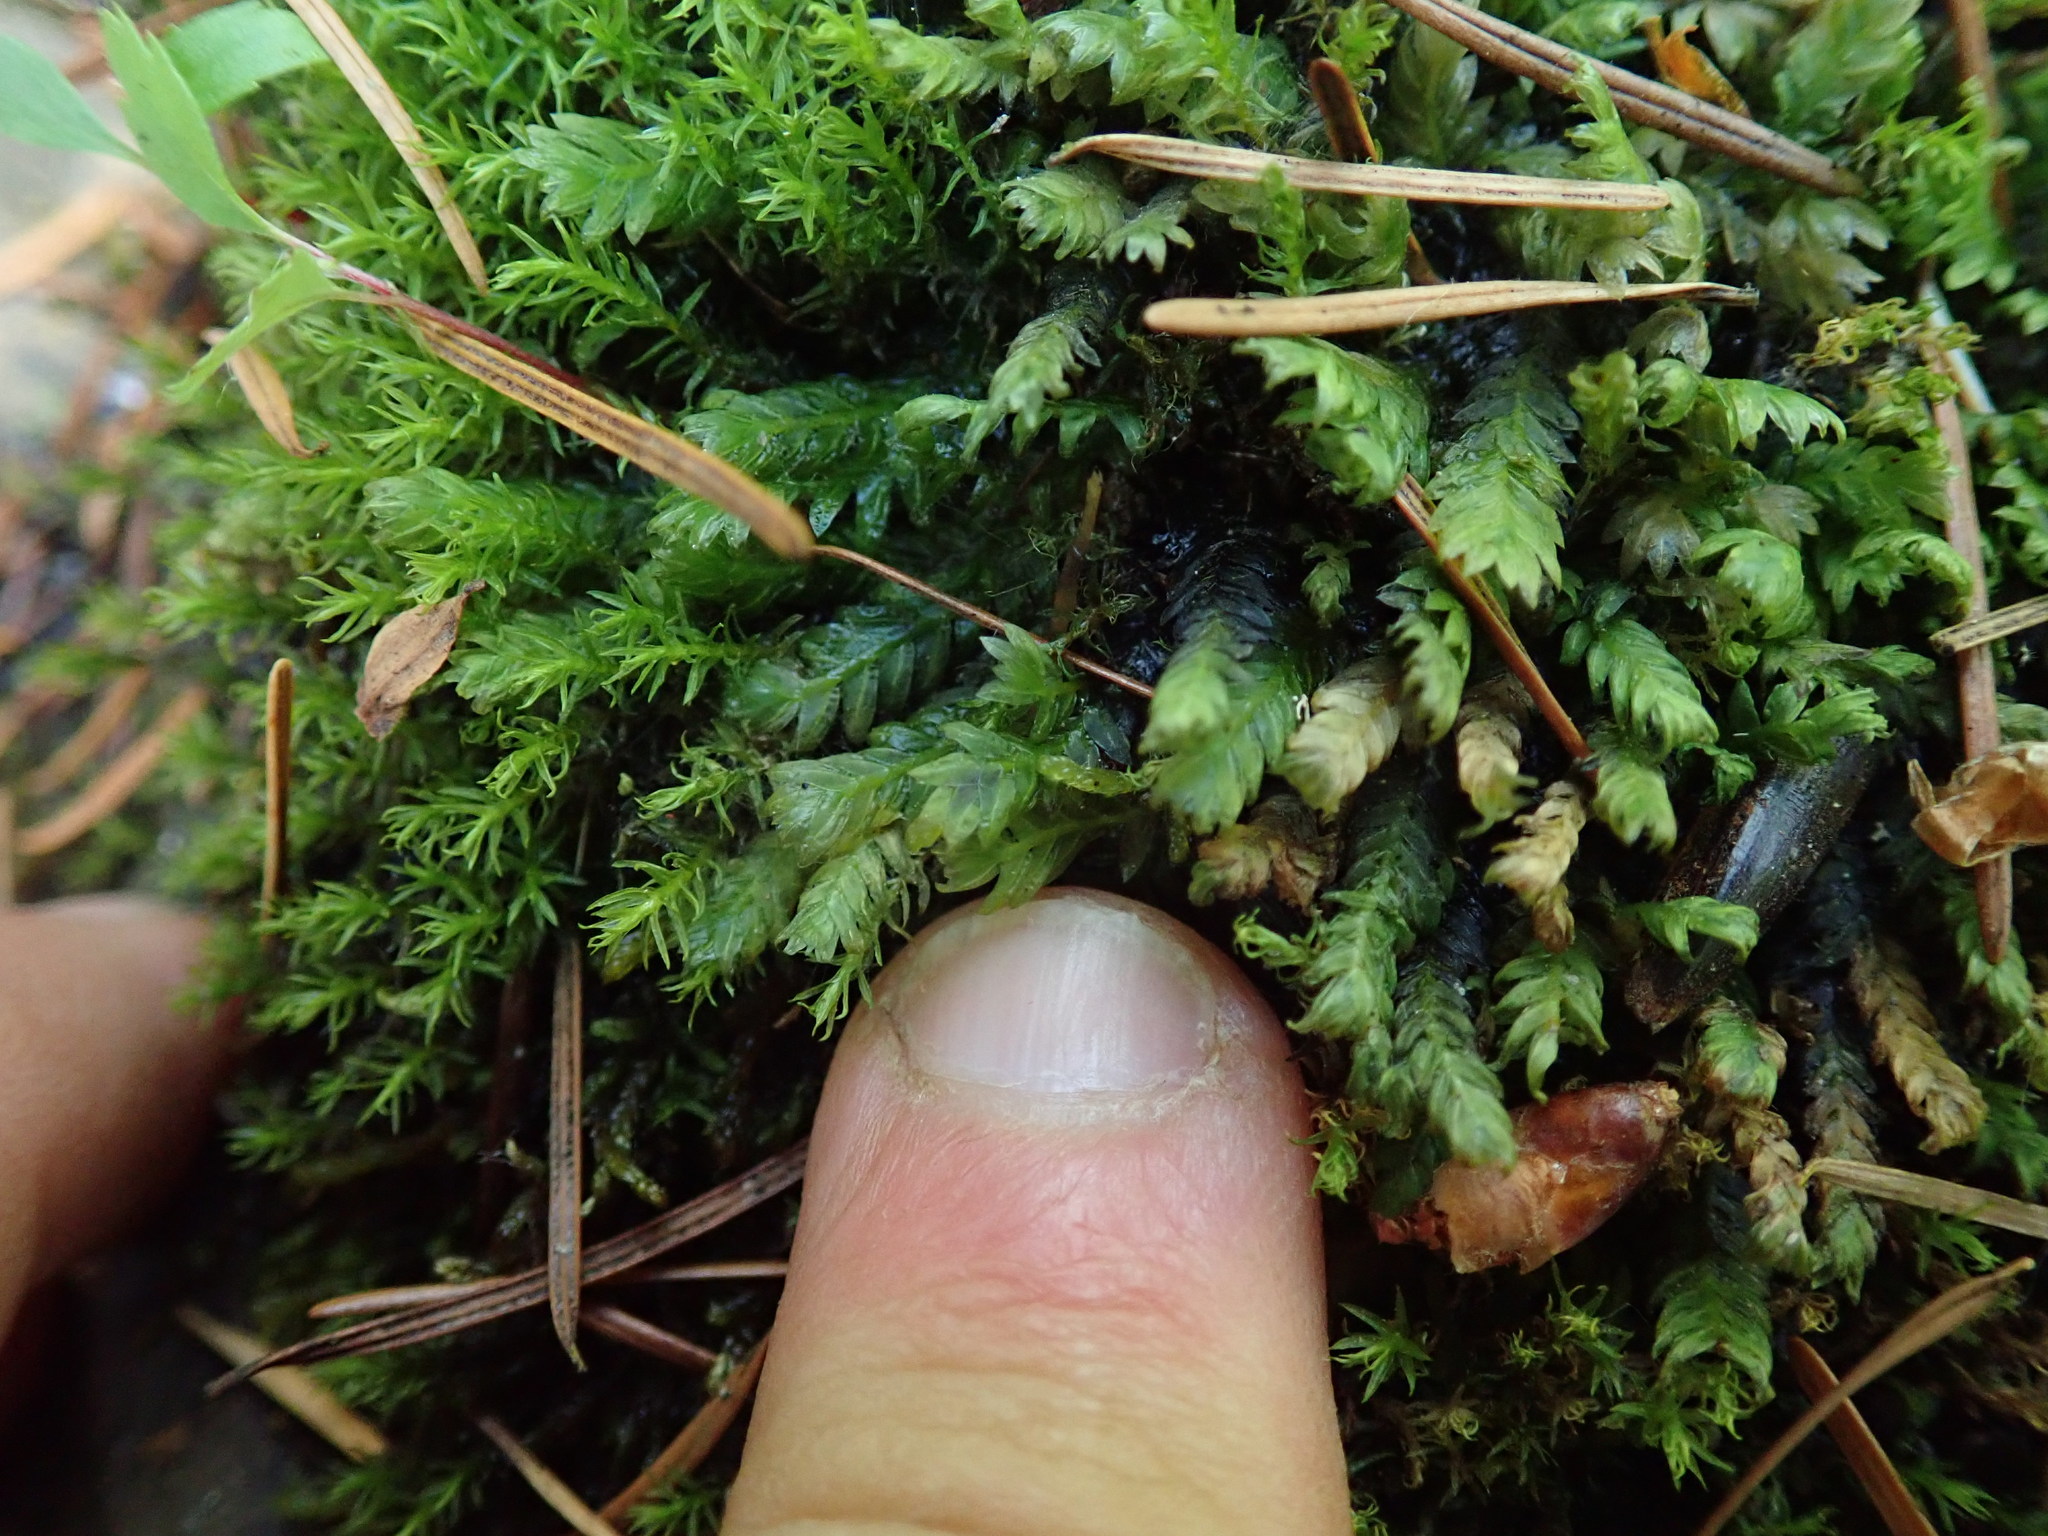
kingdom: Plantae
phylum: Bryophyta
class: Bryopsida
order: Dicranales
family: Fissidentaceae
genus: Fissidens
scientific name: Fissidens adianthoides
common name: Maidenhair pocket moss
